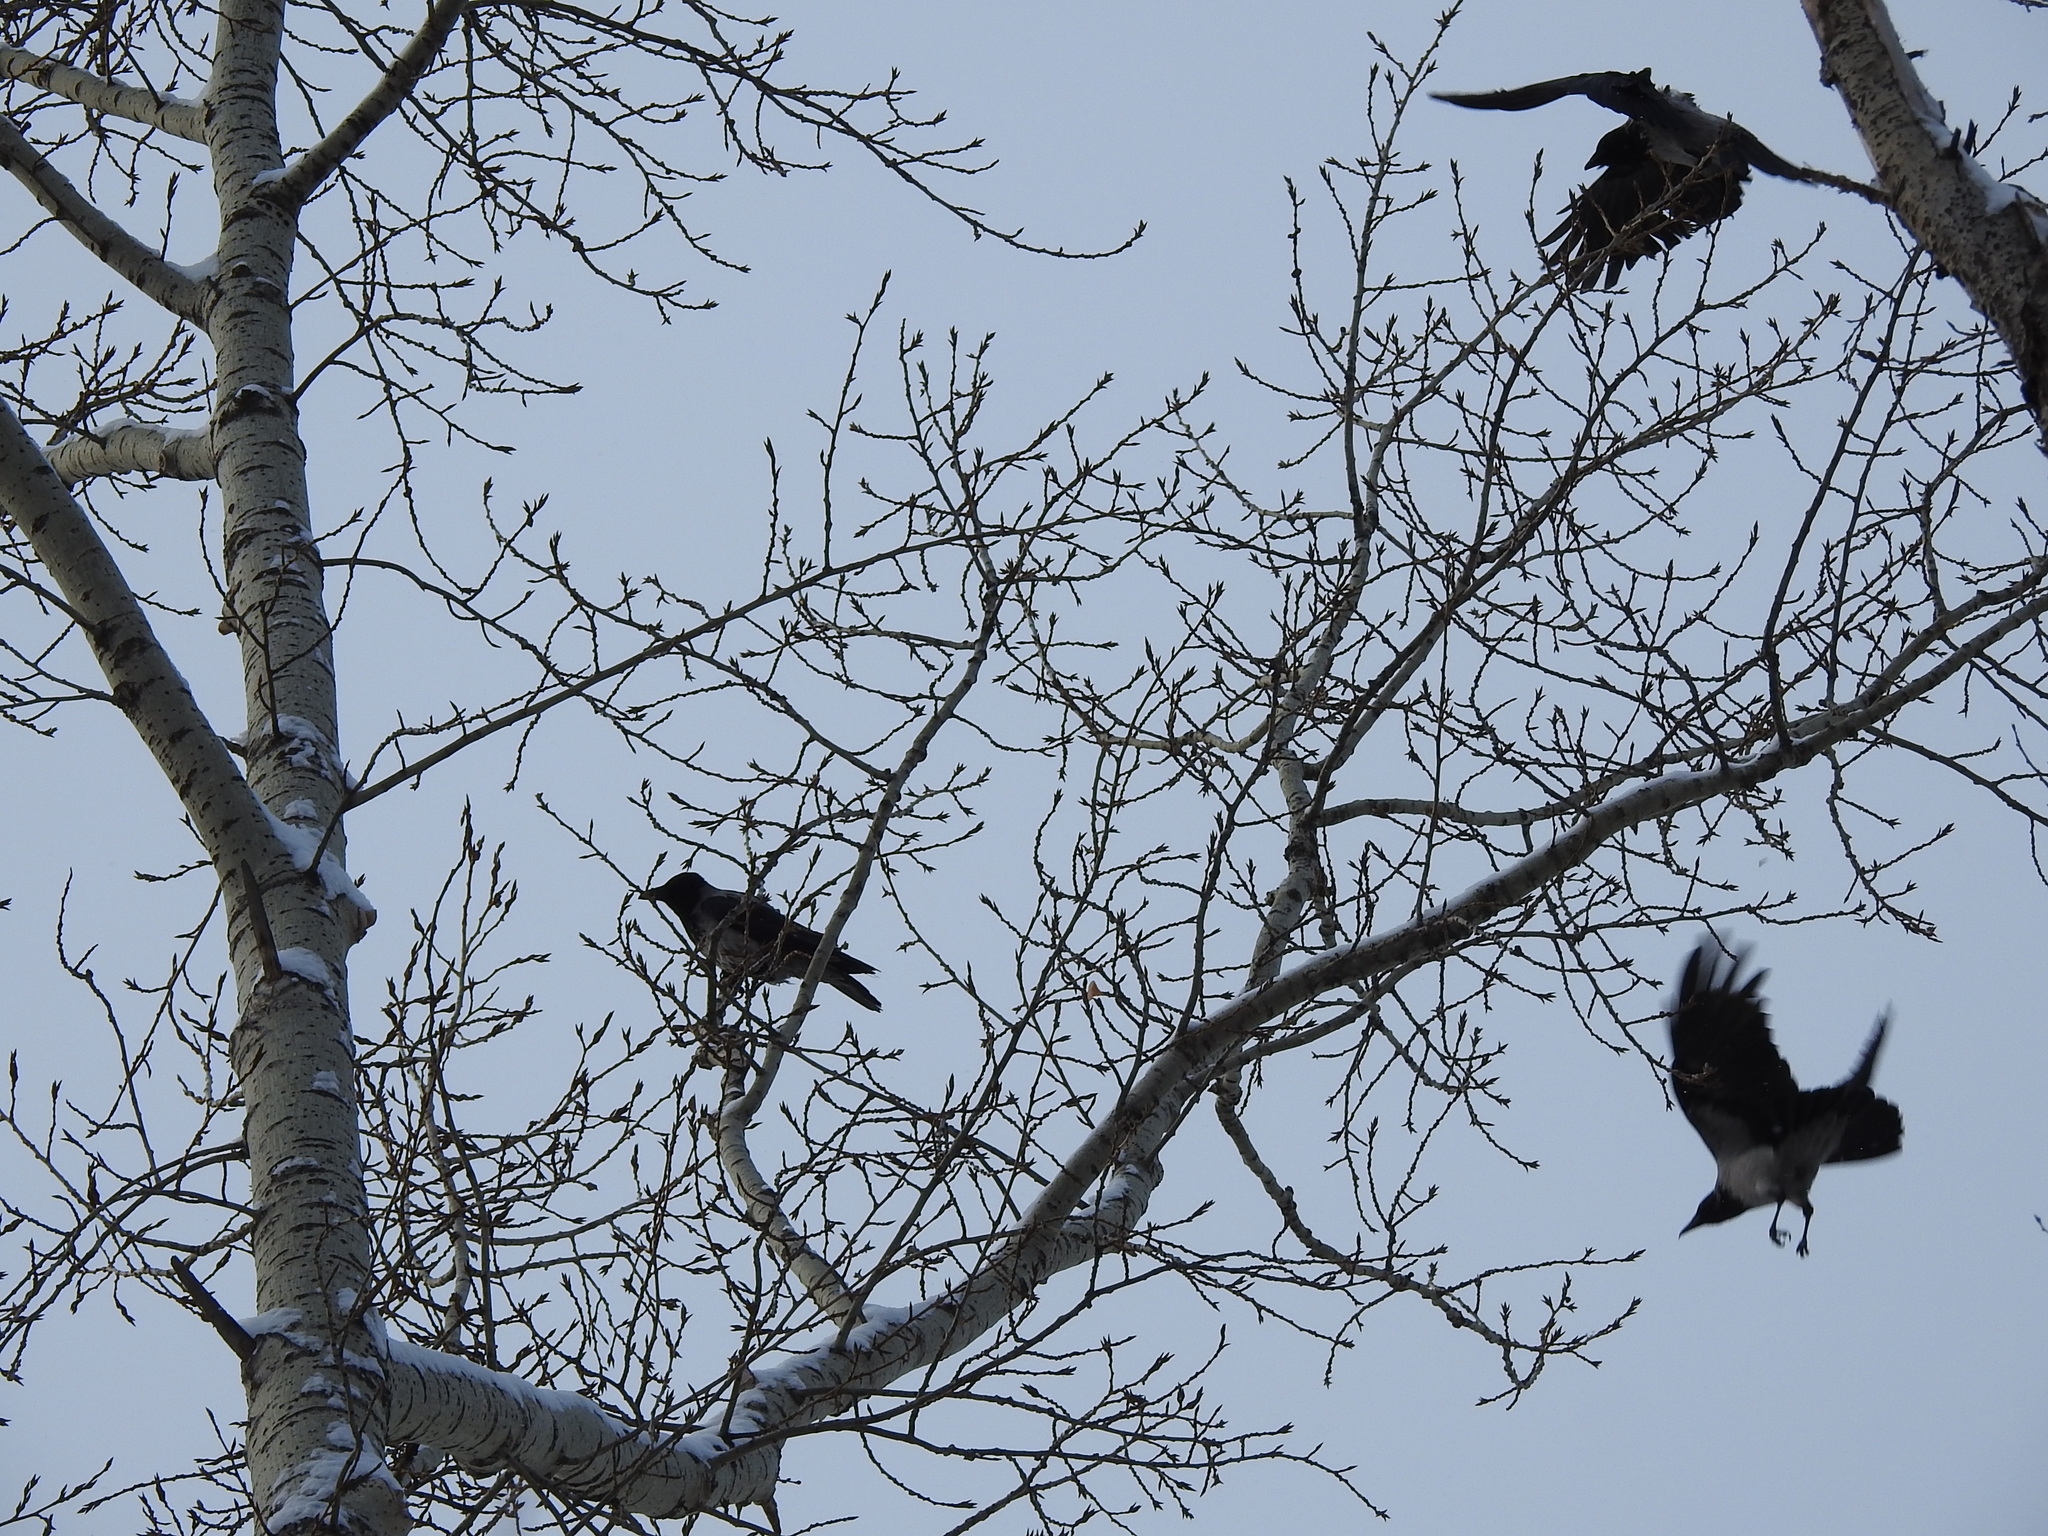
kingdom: Animalia
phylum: Chordata
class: Aves
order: Passeriformes
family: Corvidae
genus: Corvus
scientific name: Corvus cornix
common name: Hooded crow
